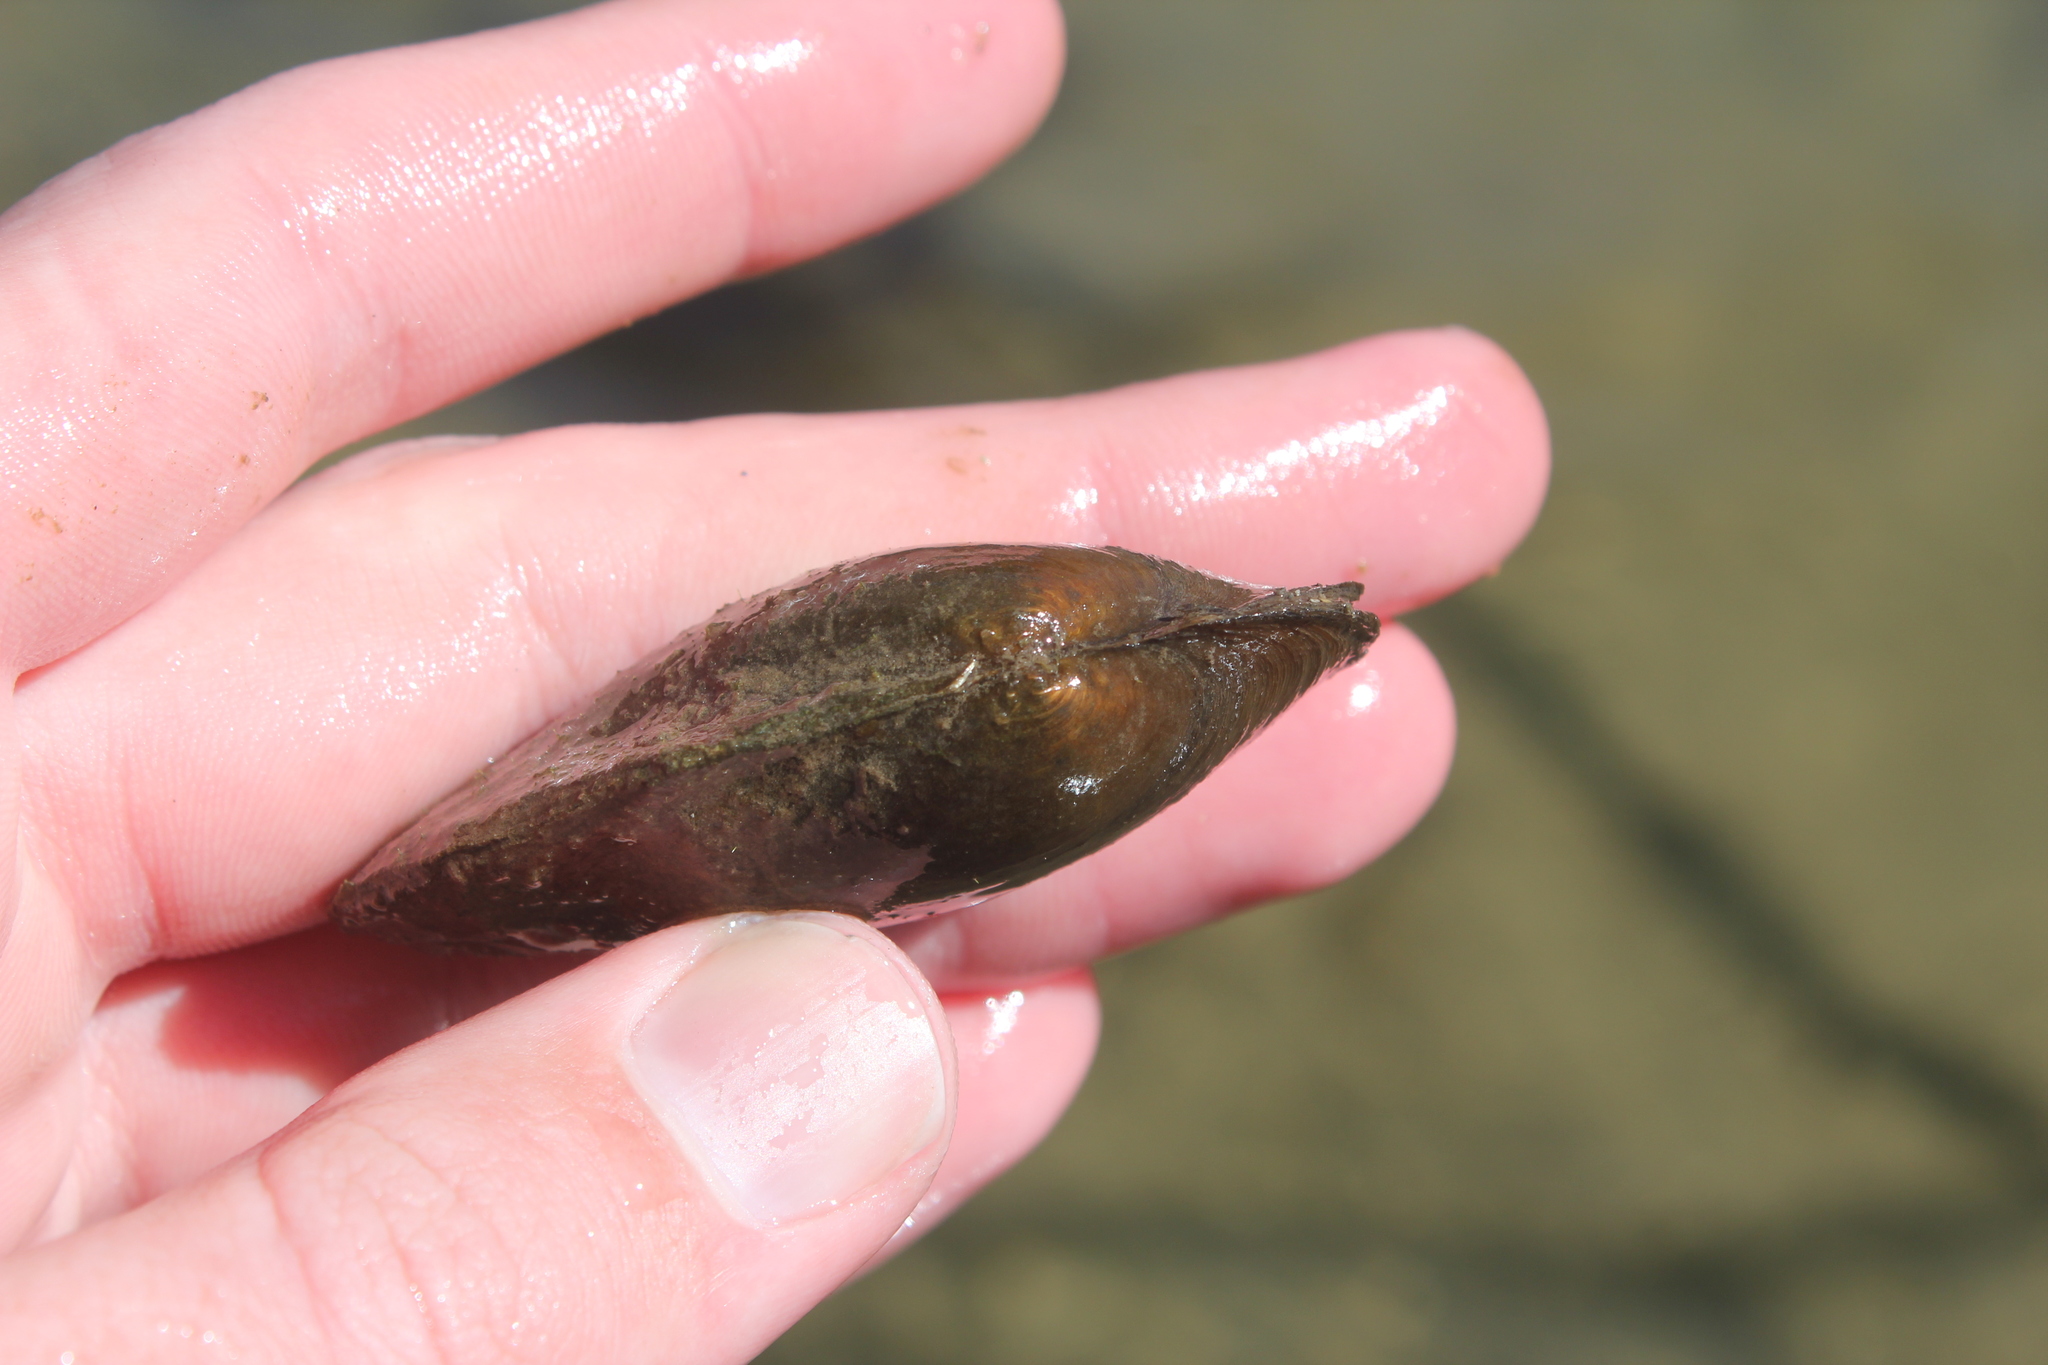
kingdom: Animalia
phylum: Mollusca
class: Bivalvia
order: Unionida
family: Unionidae
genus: Pyganodon
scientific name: Pyganodon grandis
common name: Giant floater
